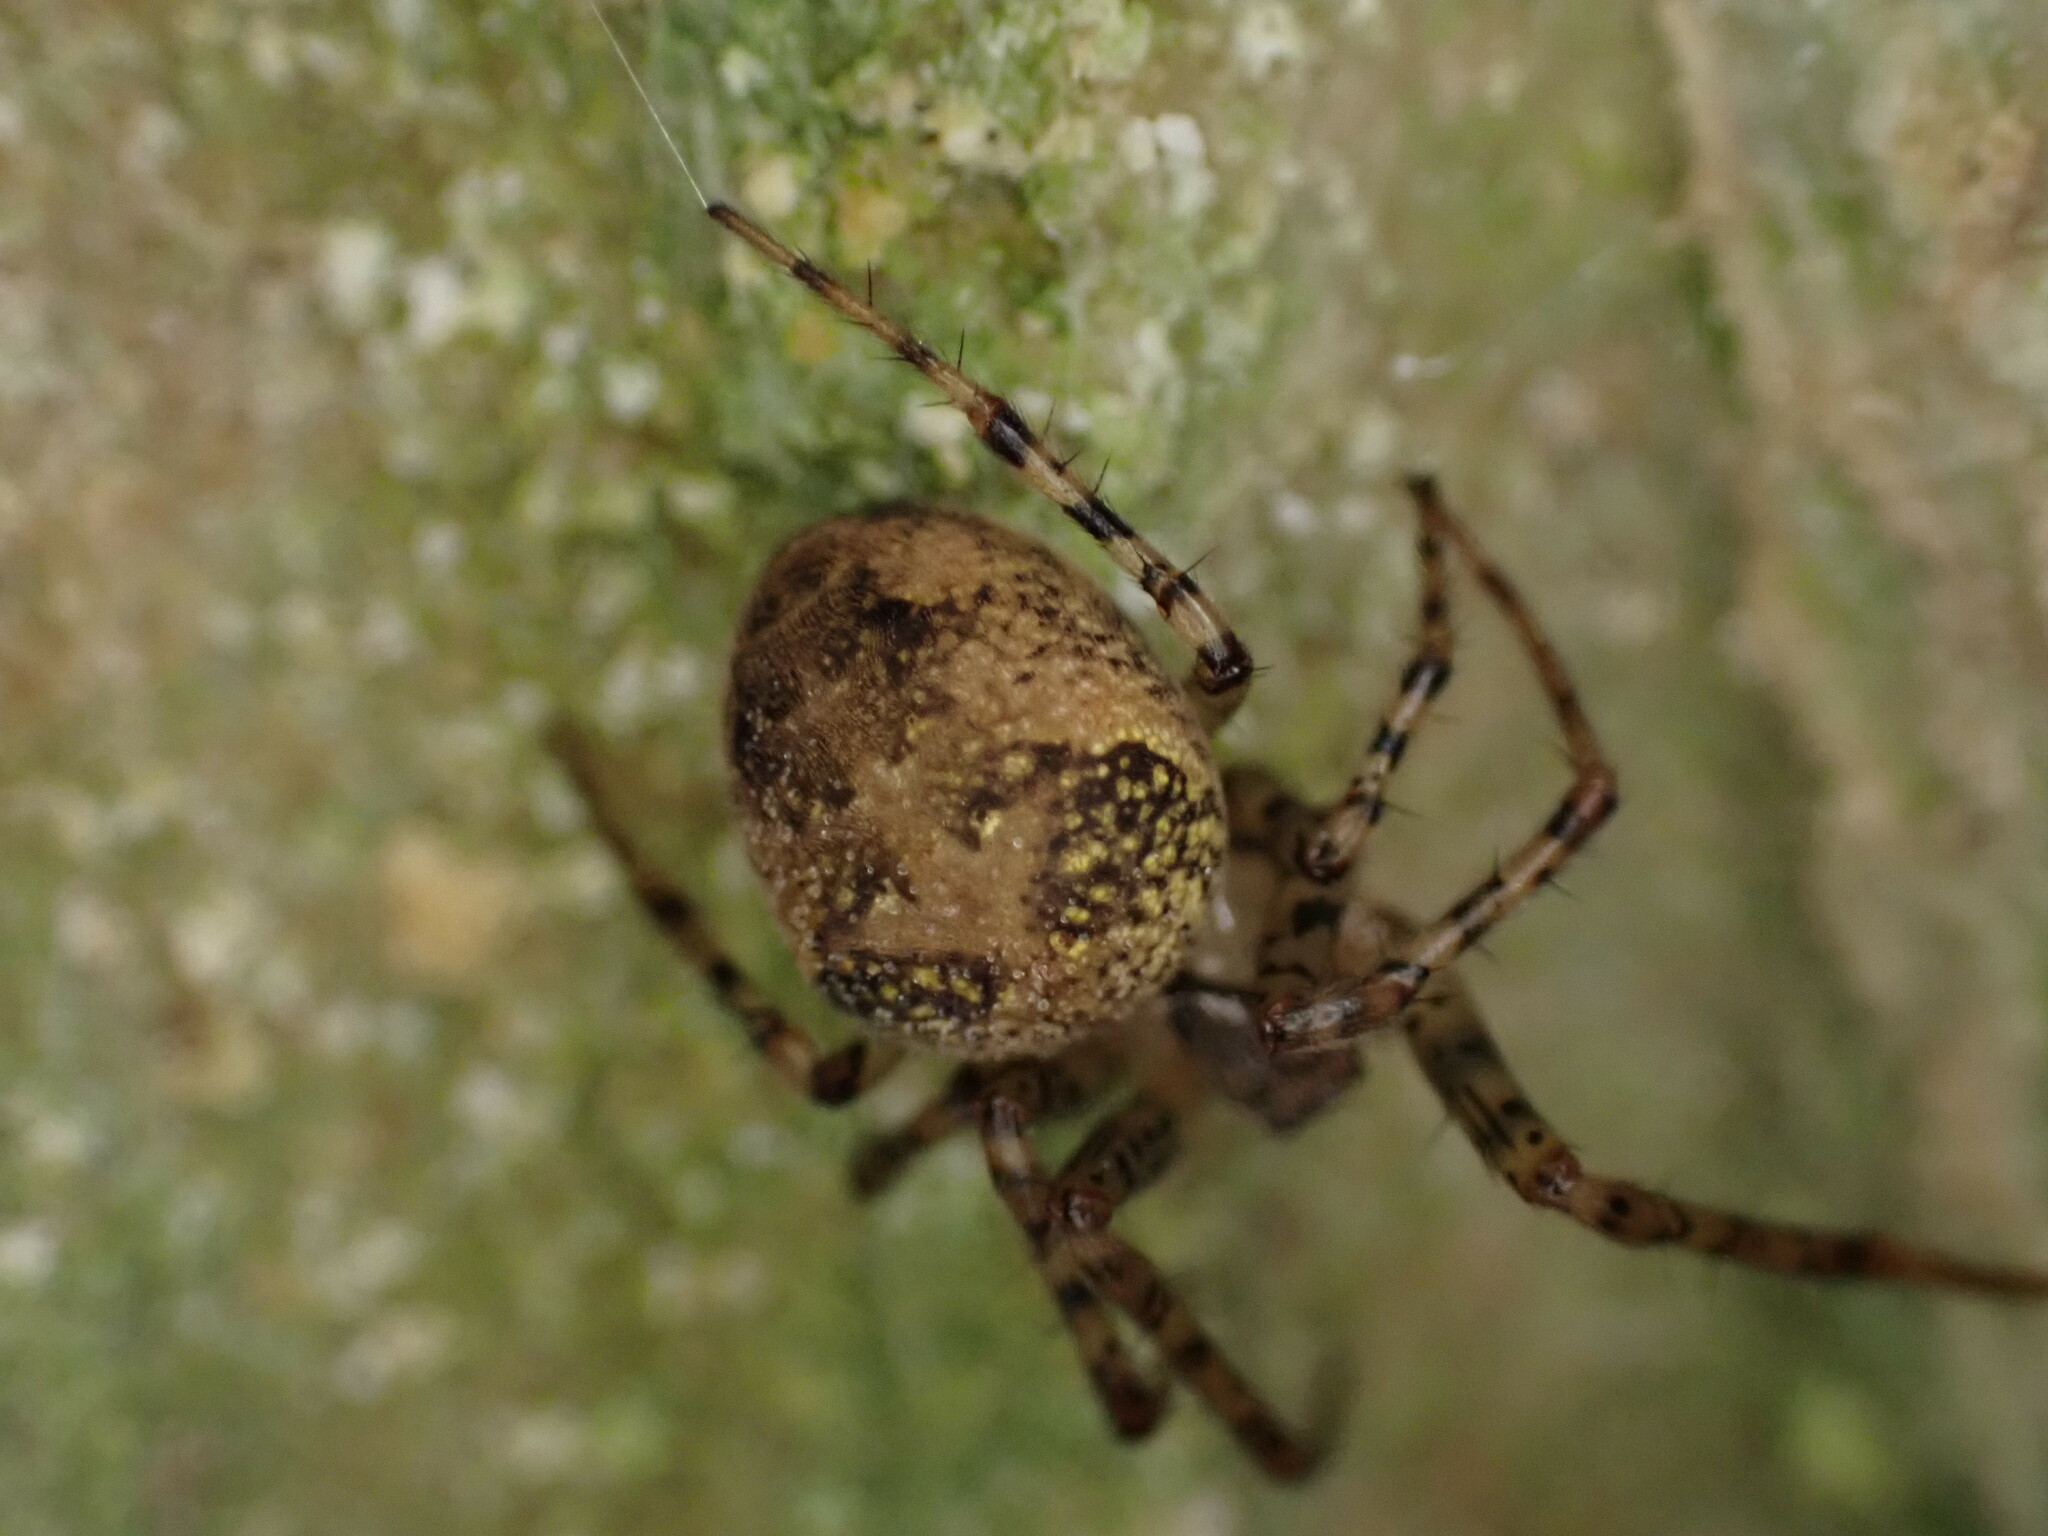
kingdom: Animalia
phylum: Arthropoda
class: Arachnida
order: Araneae
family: Tetragnathidae
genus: Metellina
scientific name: Metellina merianae
